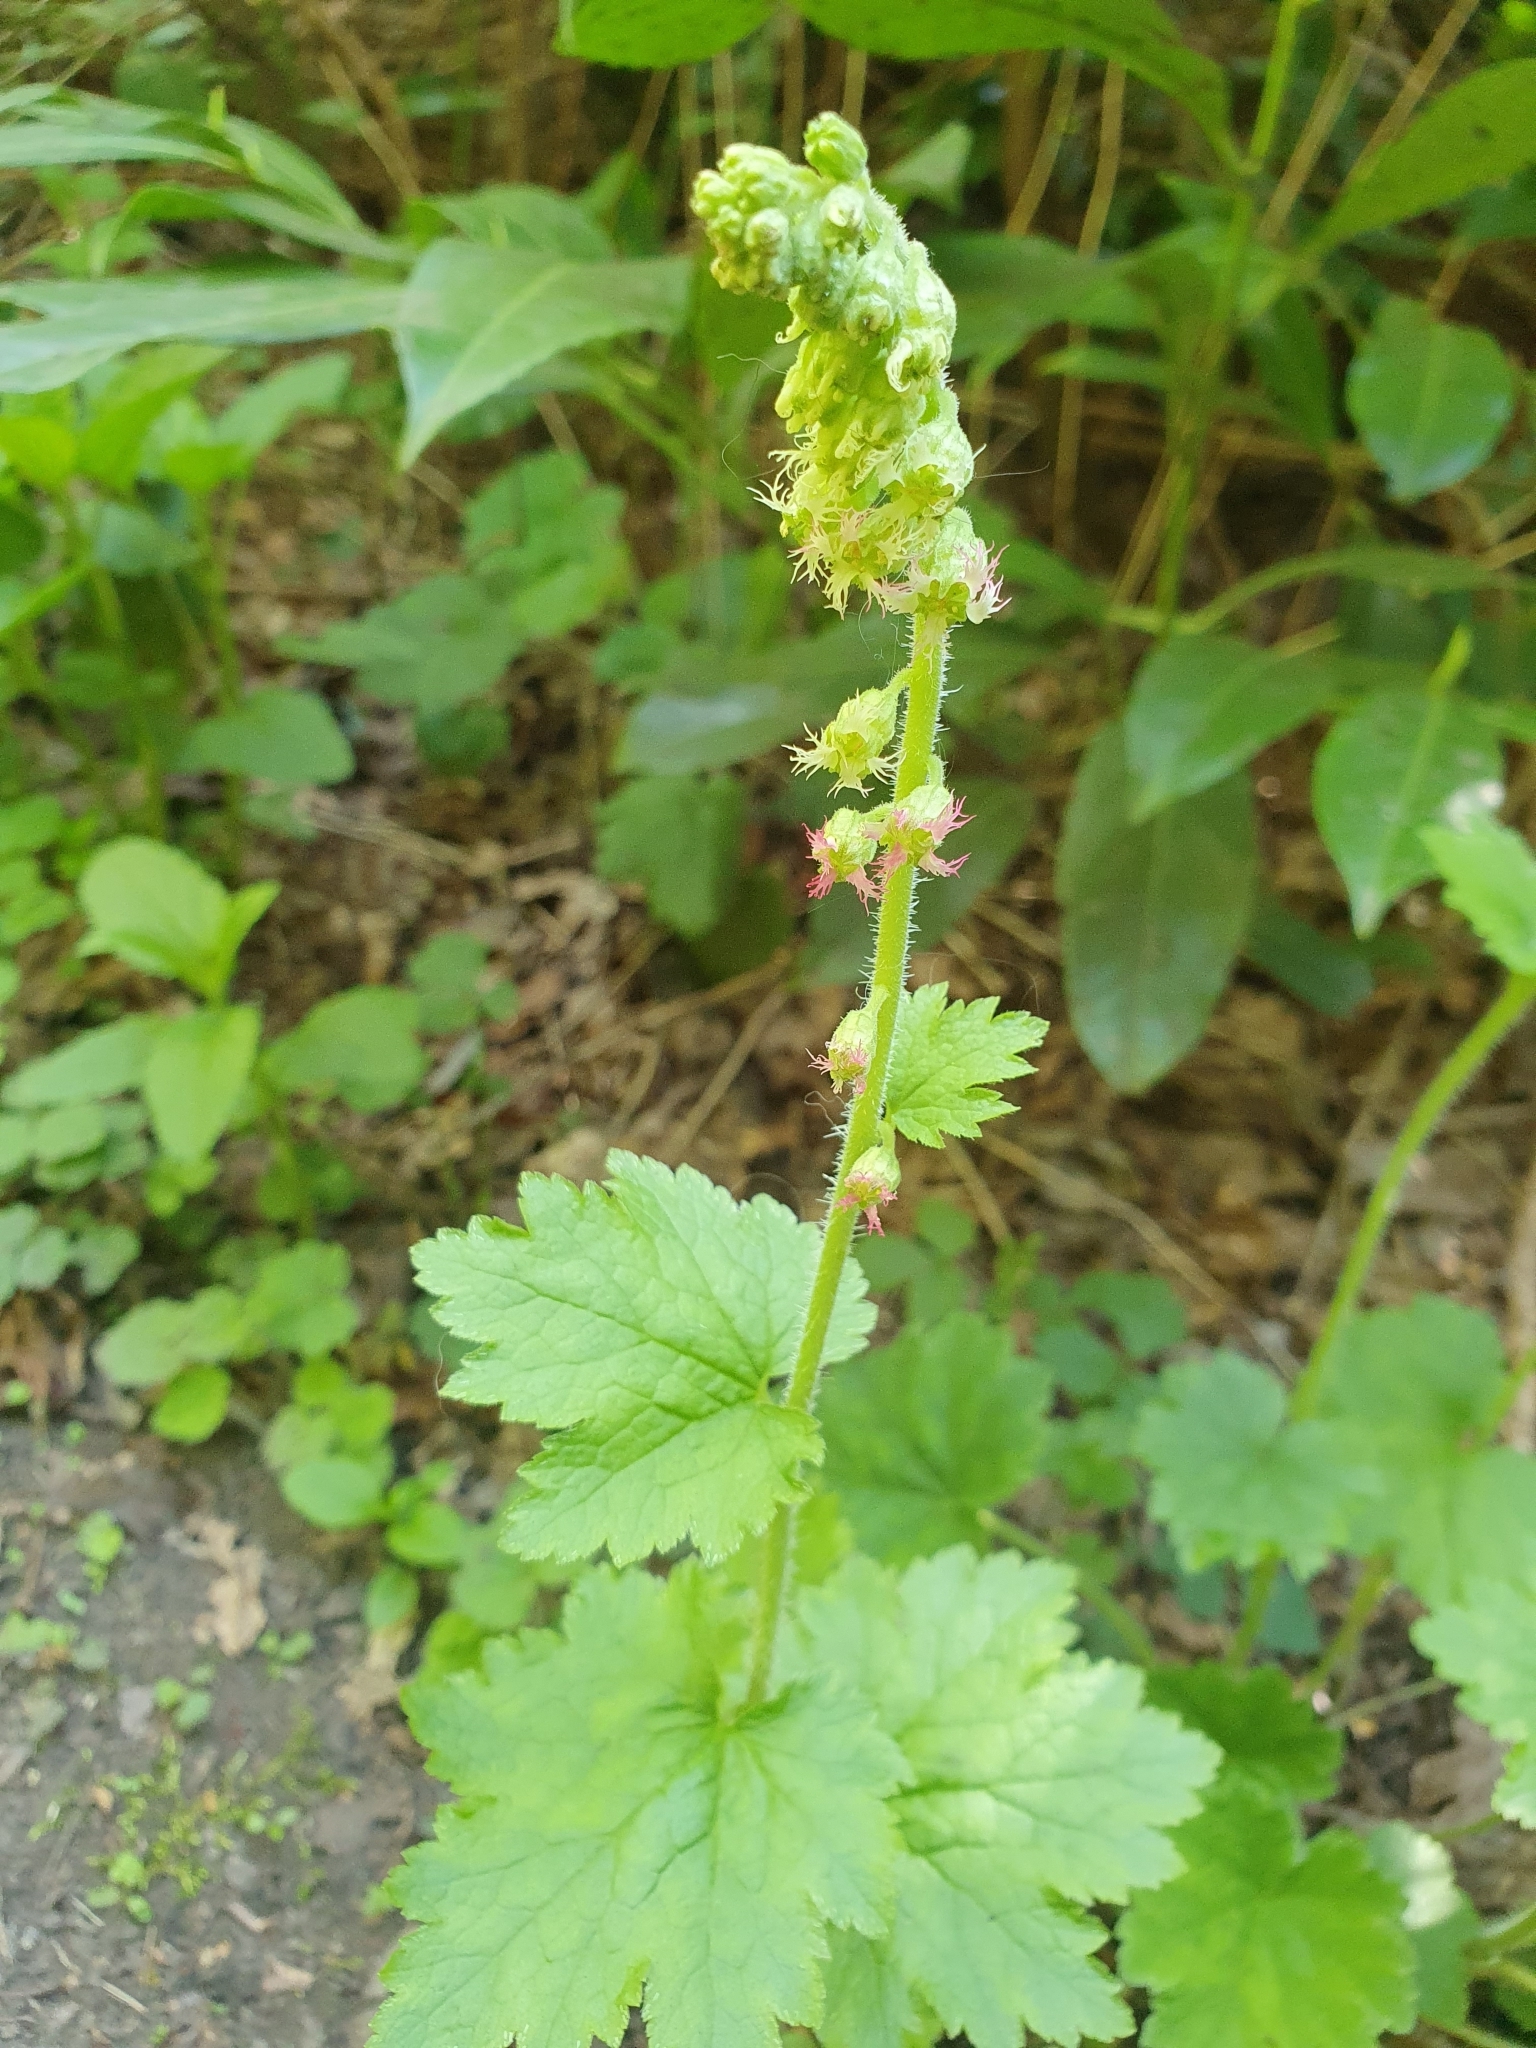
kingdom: Plantae
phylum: Tracheophyta
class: Magnoliopsida
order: Saxifragales
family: Saxifragaceae
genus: Tellima
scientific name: Tellima grandiflora
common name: Fringecups
